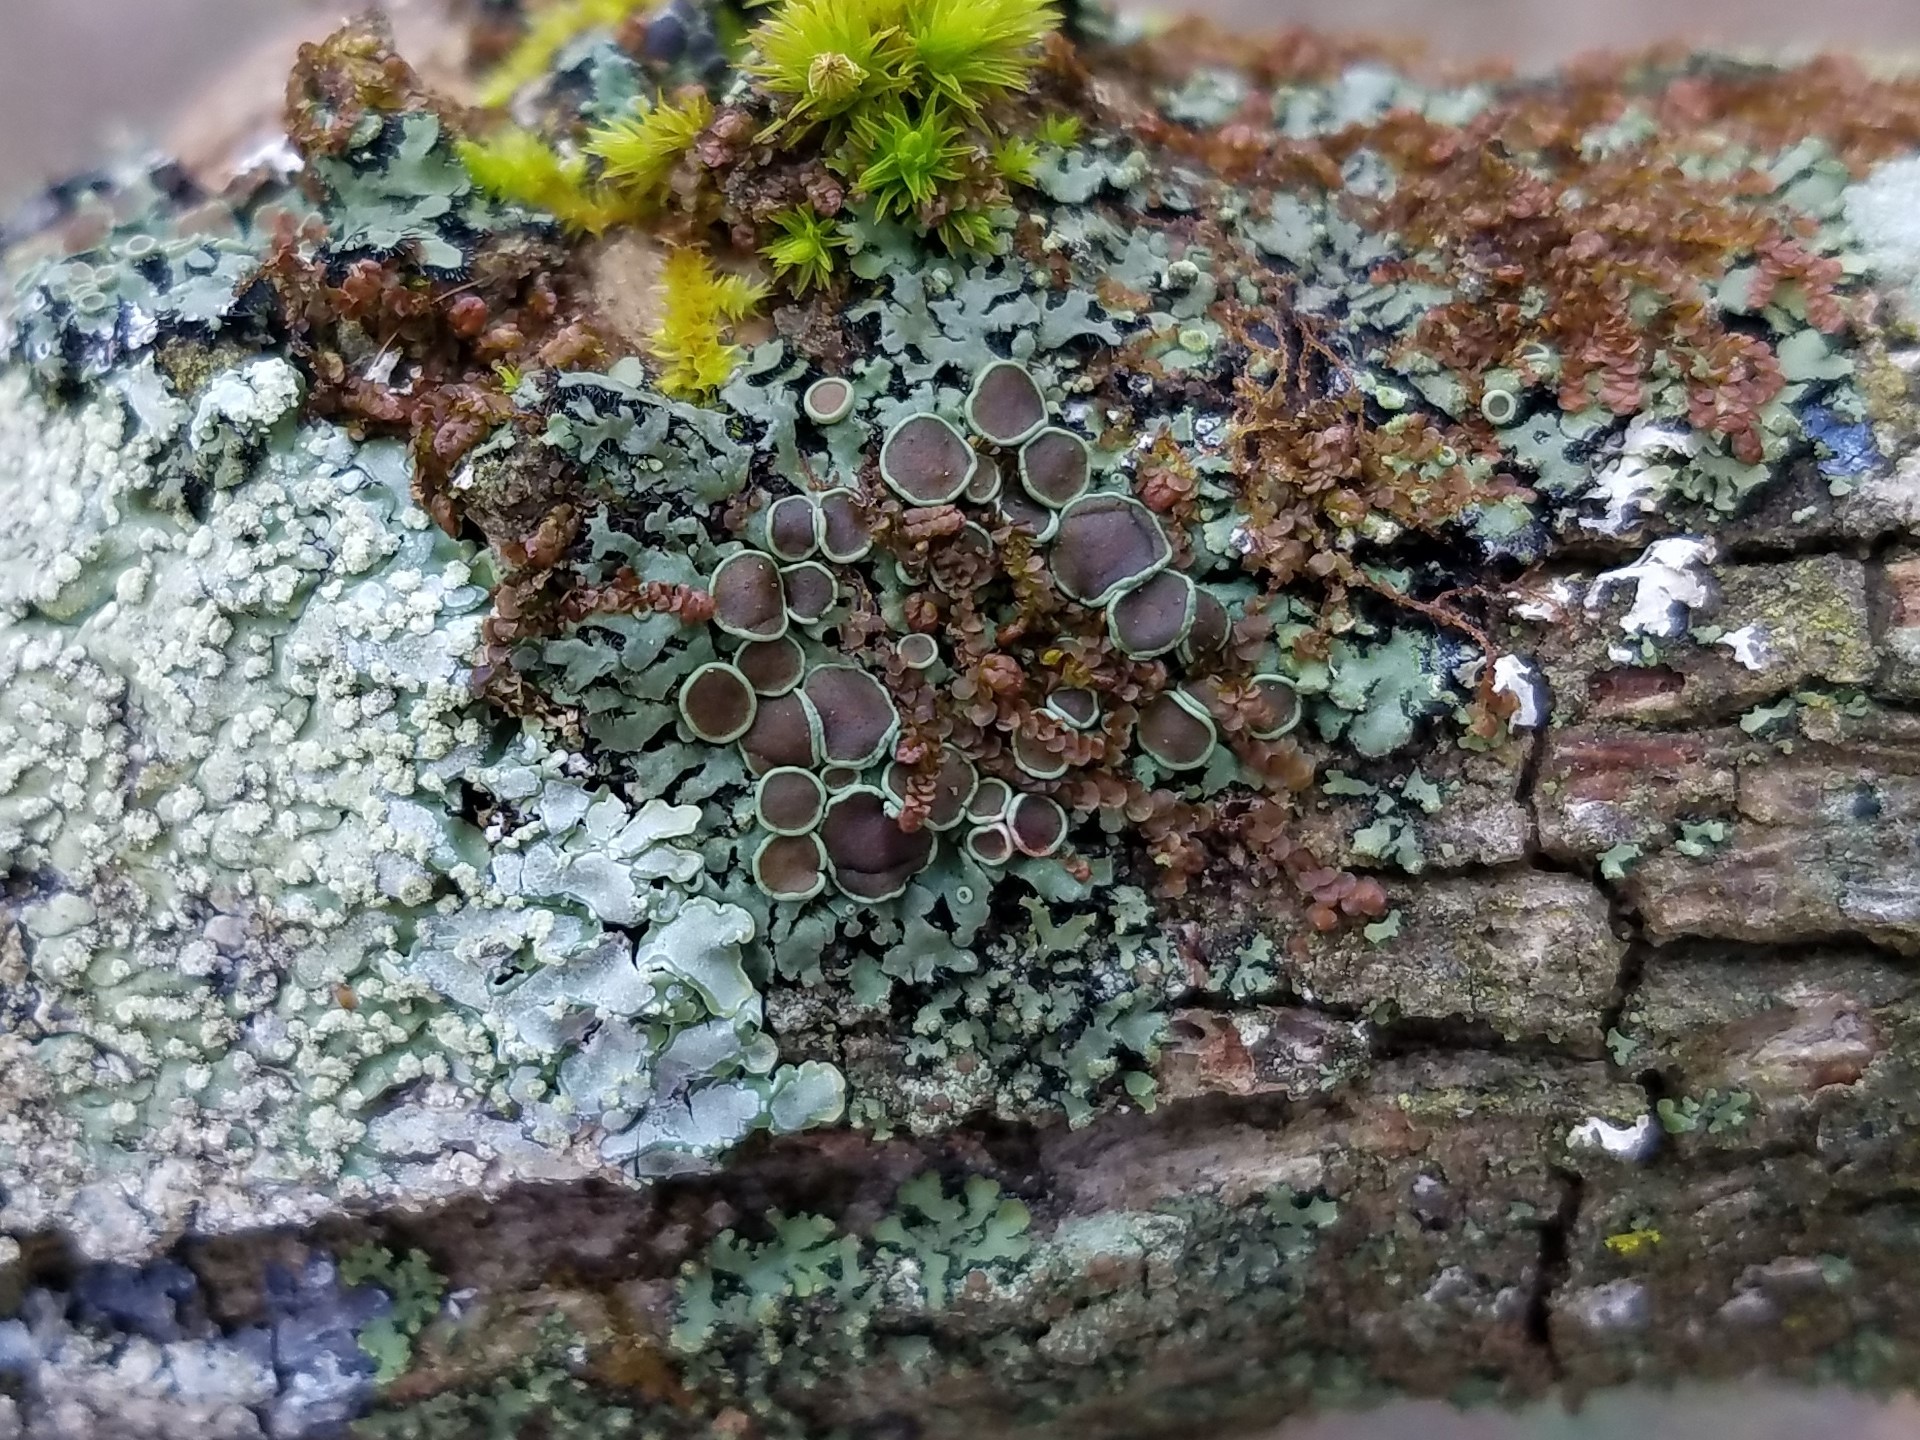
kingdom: Fungi
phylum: Ascomycota
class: Lecanoromycetes
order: Caliciales
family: Physciaceae
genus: Phaeophyscia
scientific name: Phaeophyscia ciliata
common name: Smooth shadow lichen
